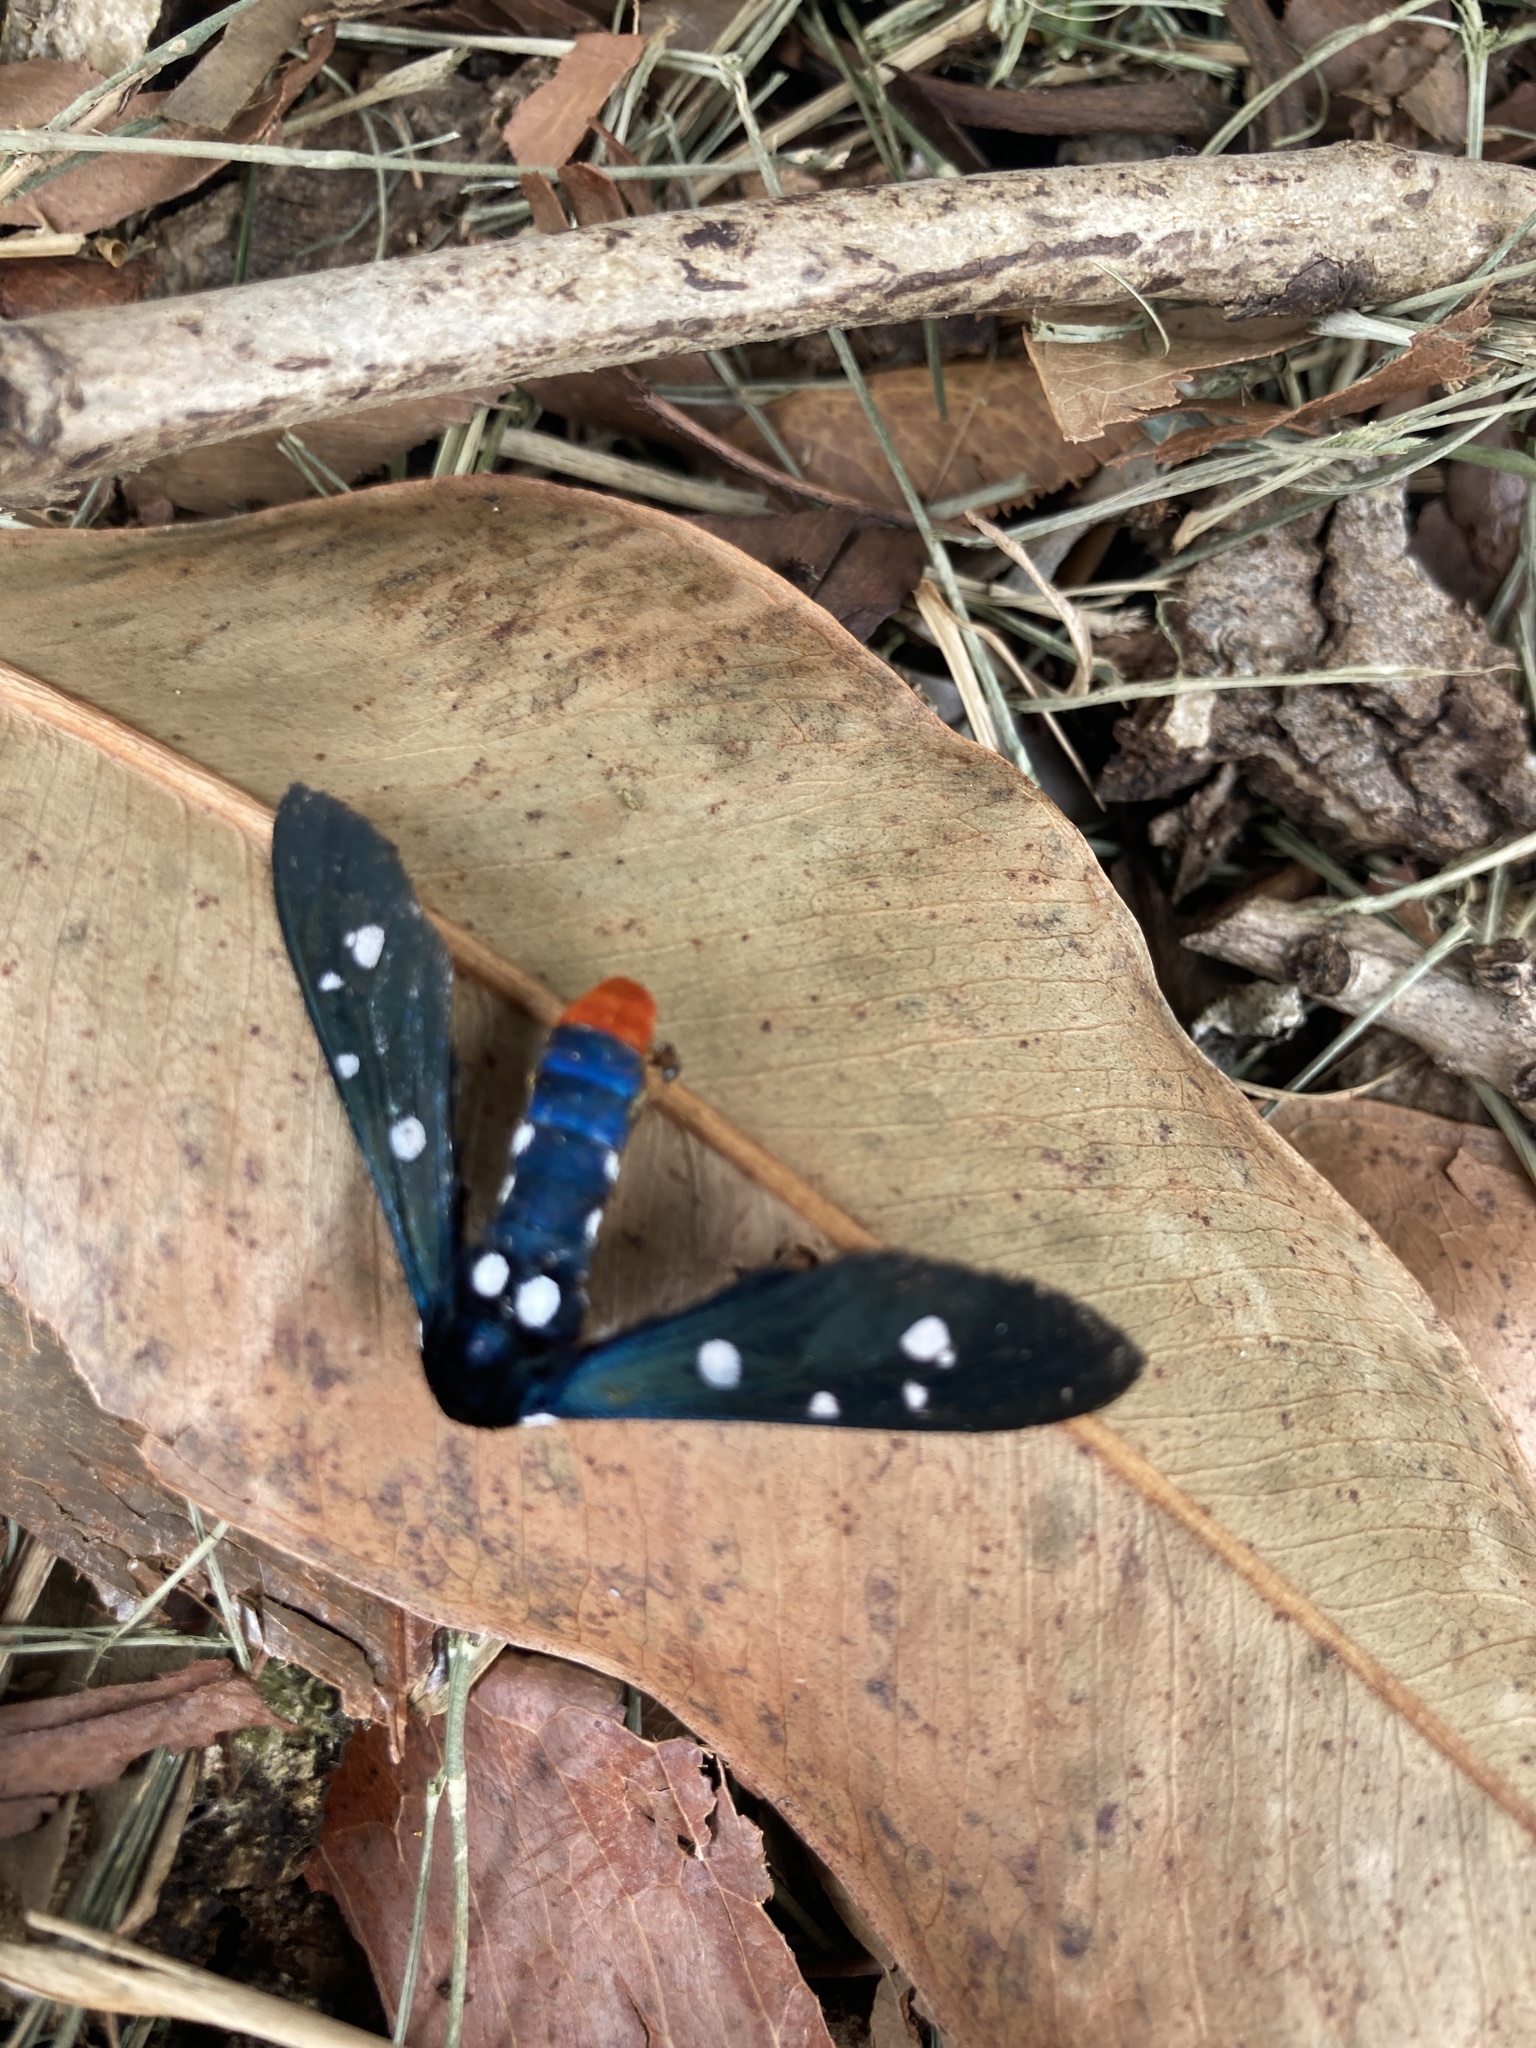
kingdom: Animalia
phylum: Arthropoda
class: Insecta
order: Lepidoptera
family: Erebidae
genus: Syntomeida
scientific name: Syntomeida epilais
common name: Polka-dot wasp moth
